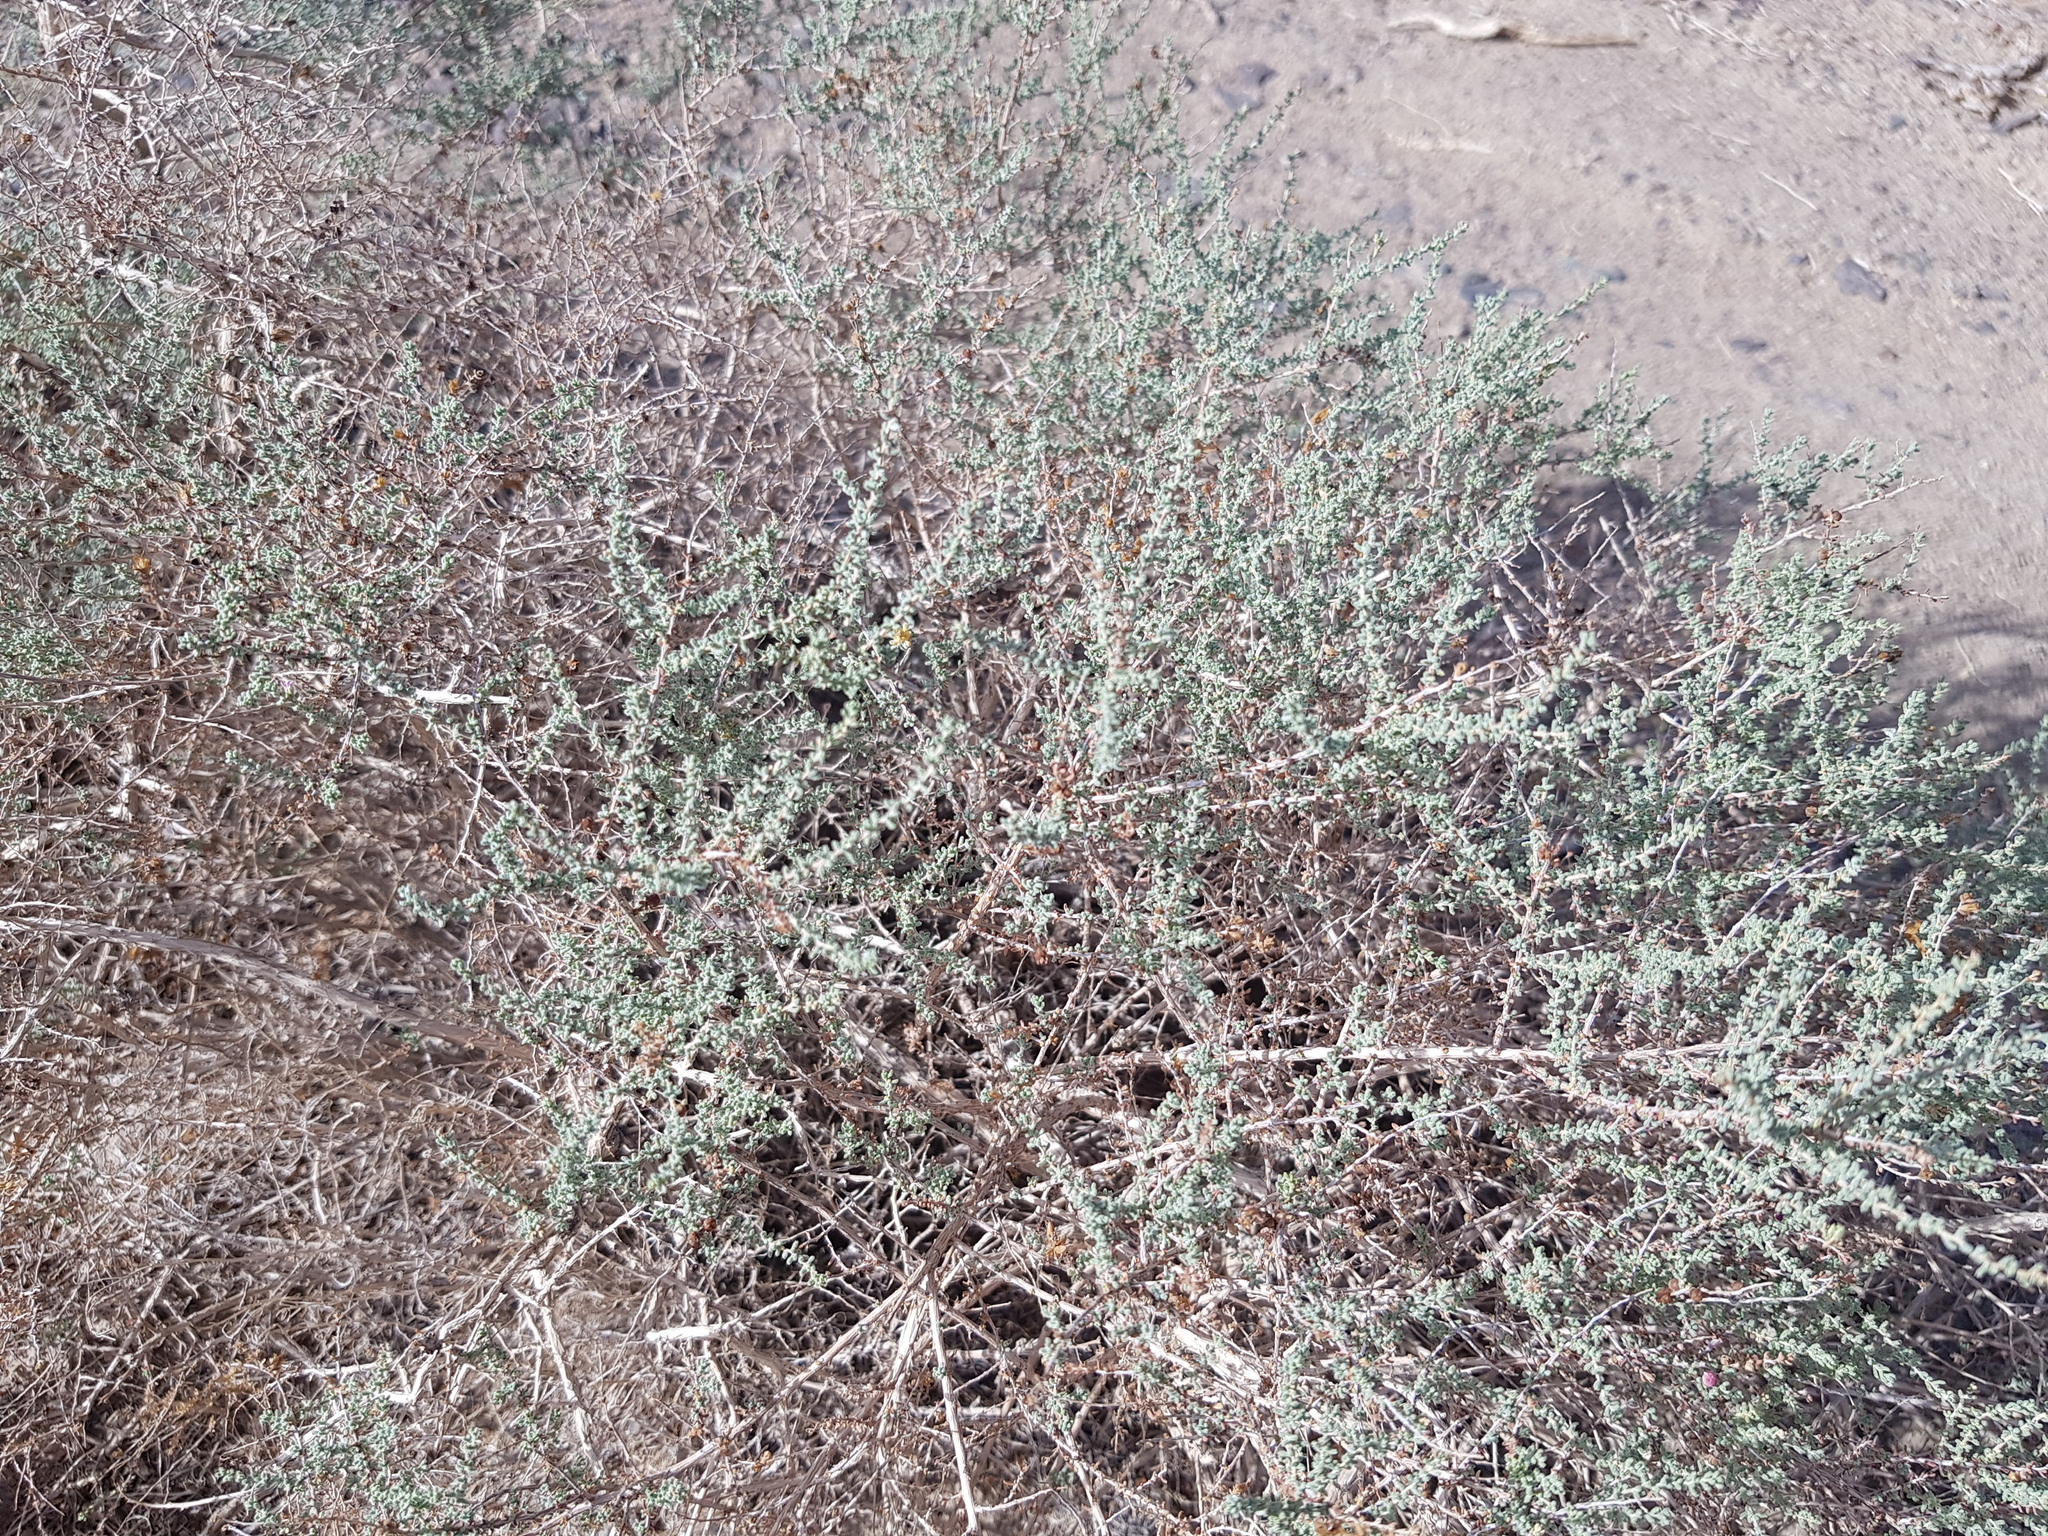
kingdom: Plantae
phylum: Tracheophyta
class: Magnoliopsida
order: Caryophyllales
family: Tamaricaceae
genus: Reaumuria
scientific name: Reaumuria songarica
